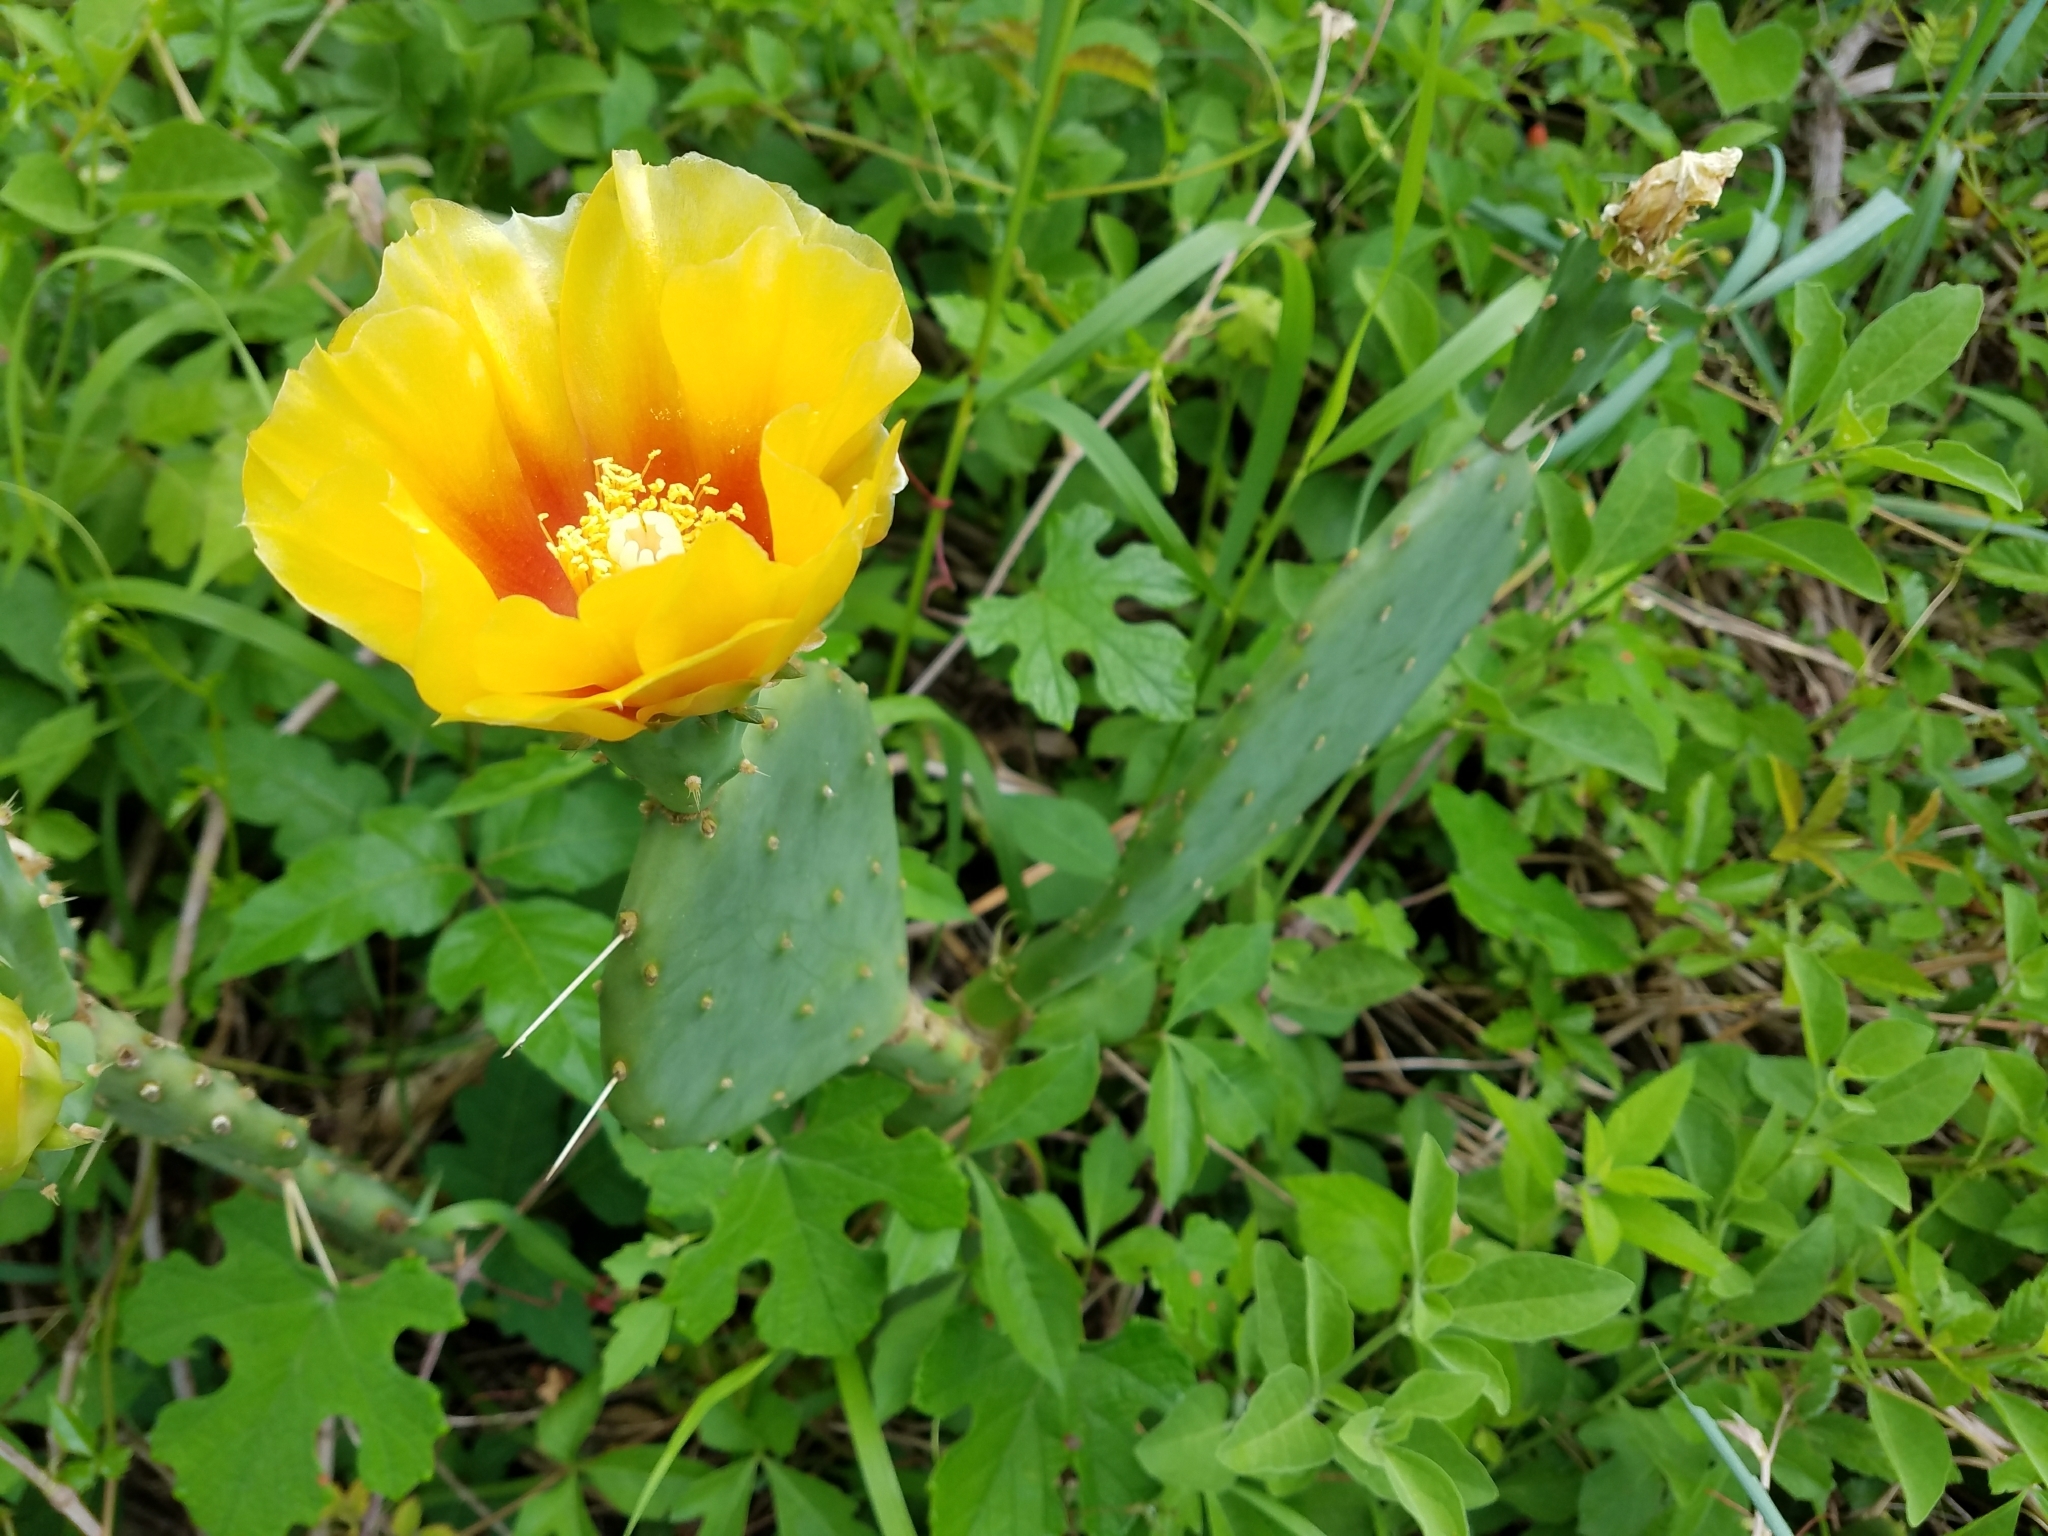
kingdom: Plantae
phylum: Tracheophyta
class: Magnoliopsida
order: Caryophyllales
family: Cactaceae
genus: Opuntia
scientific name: Opuntia anahuacensis
